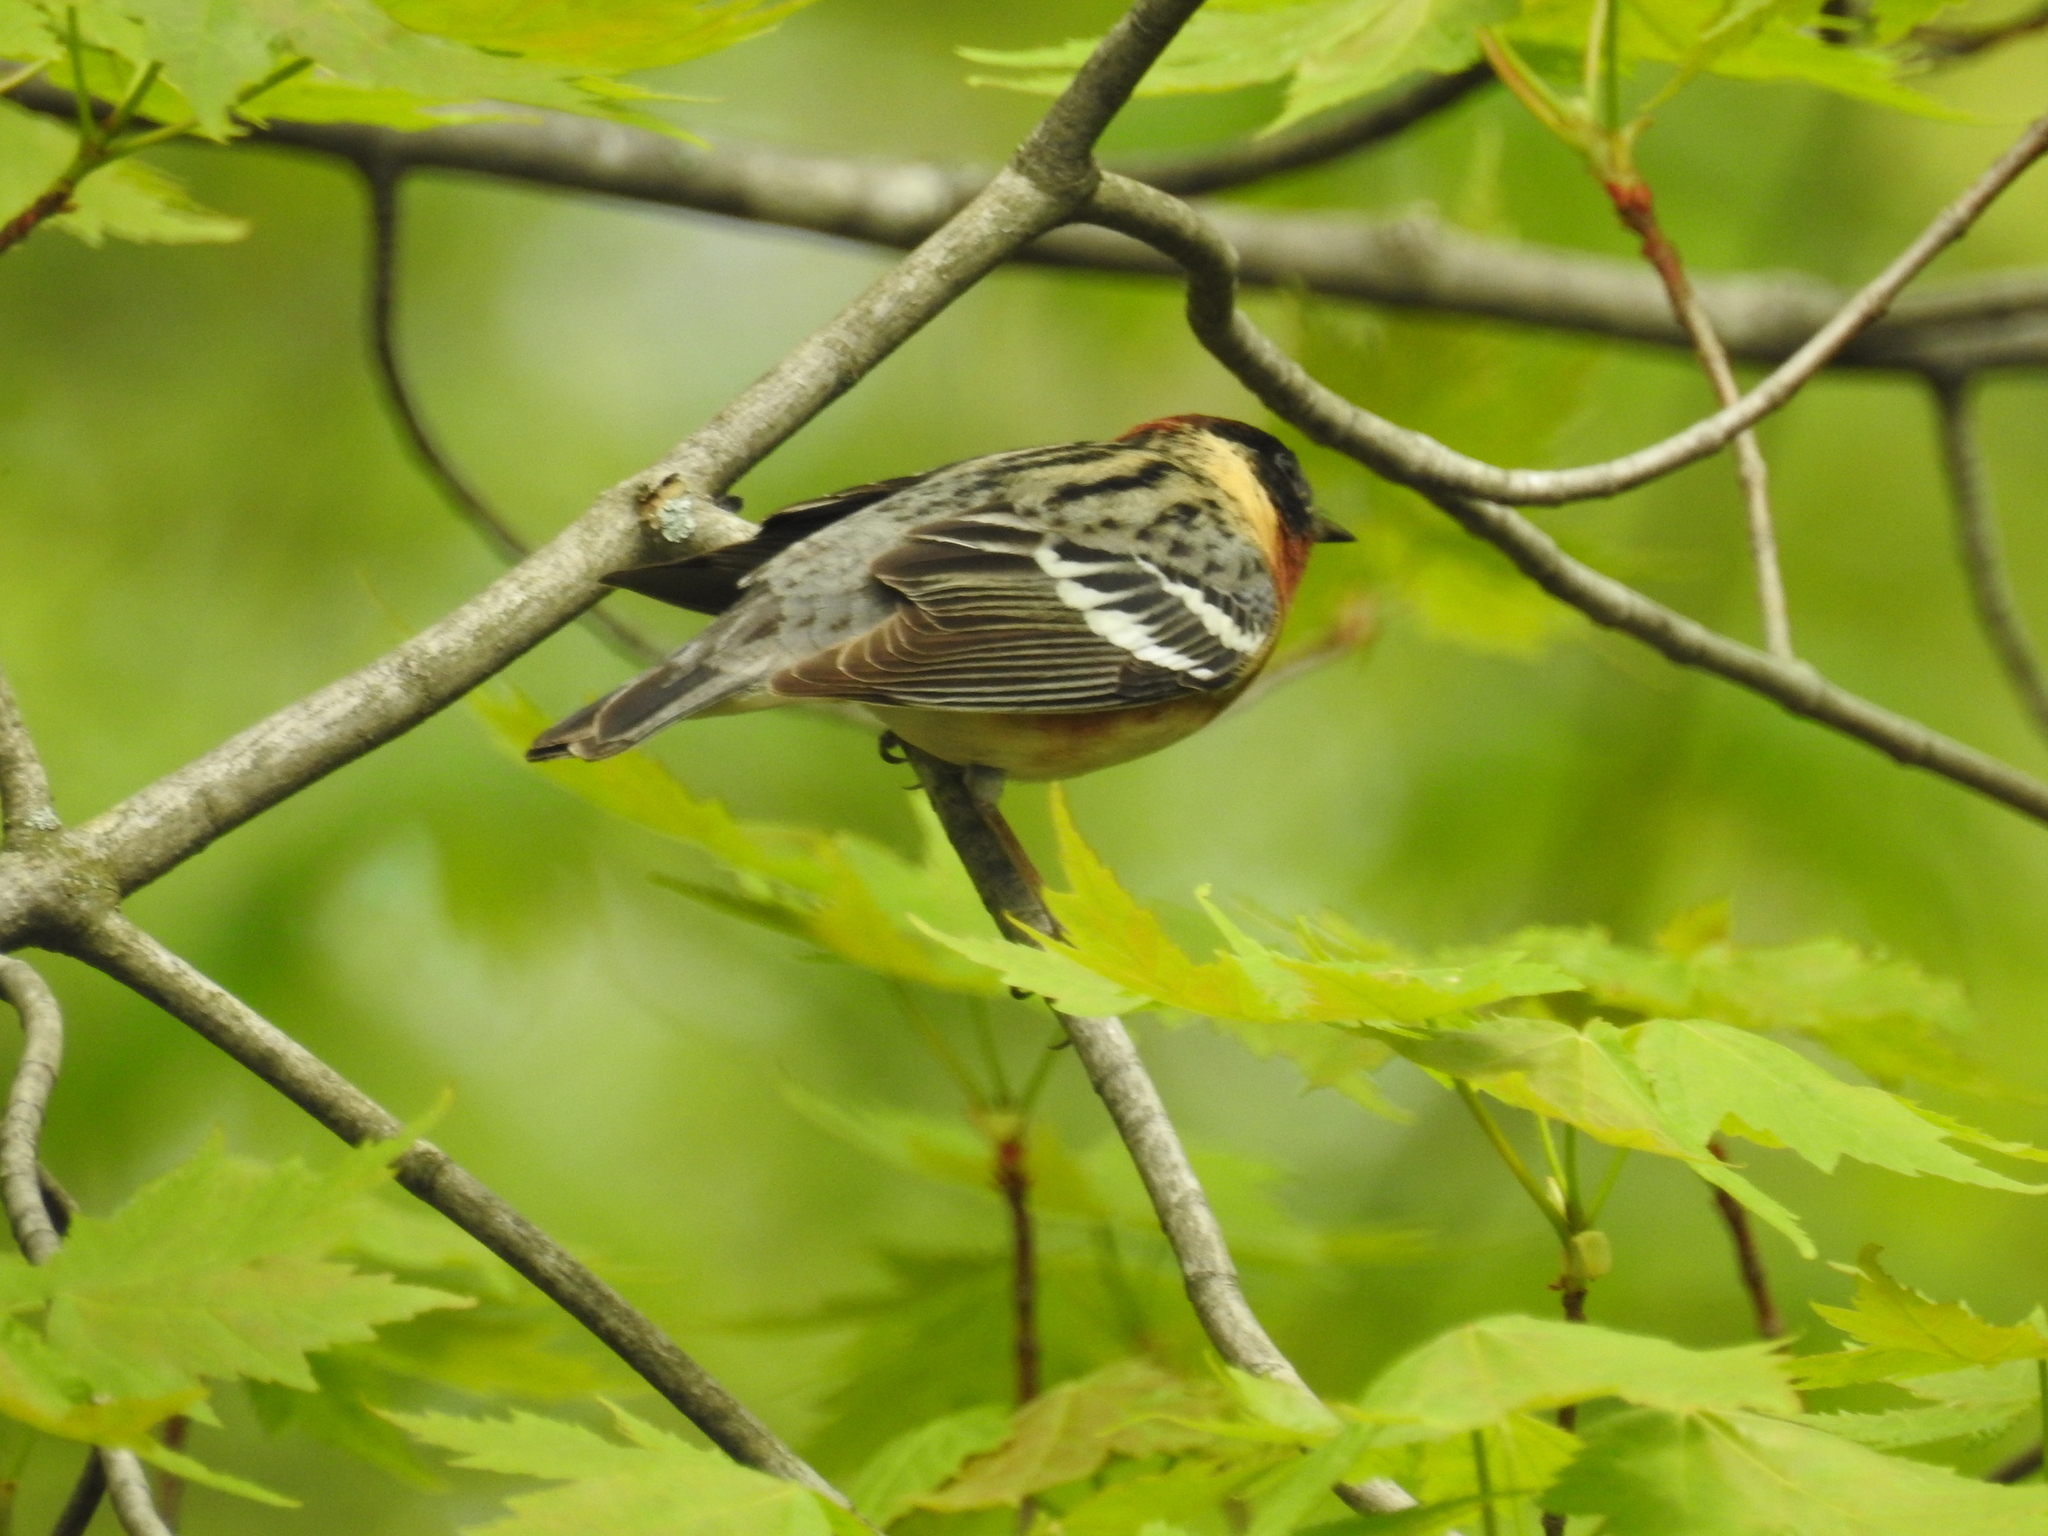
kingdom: Animalia
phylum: Chordata
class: Aves
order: Passeriformes
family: Parulidae
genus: Setophaga
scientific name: Setophaga castanea
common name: Bay-breasted warbler
